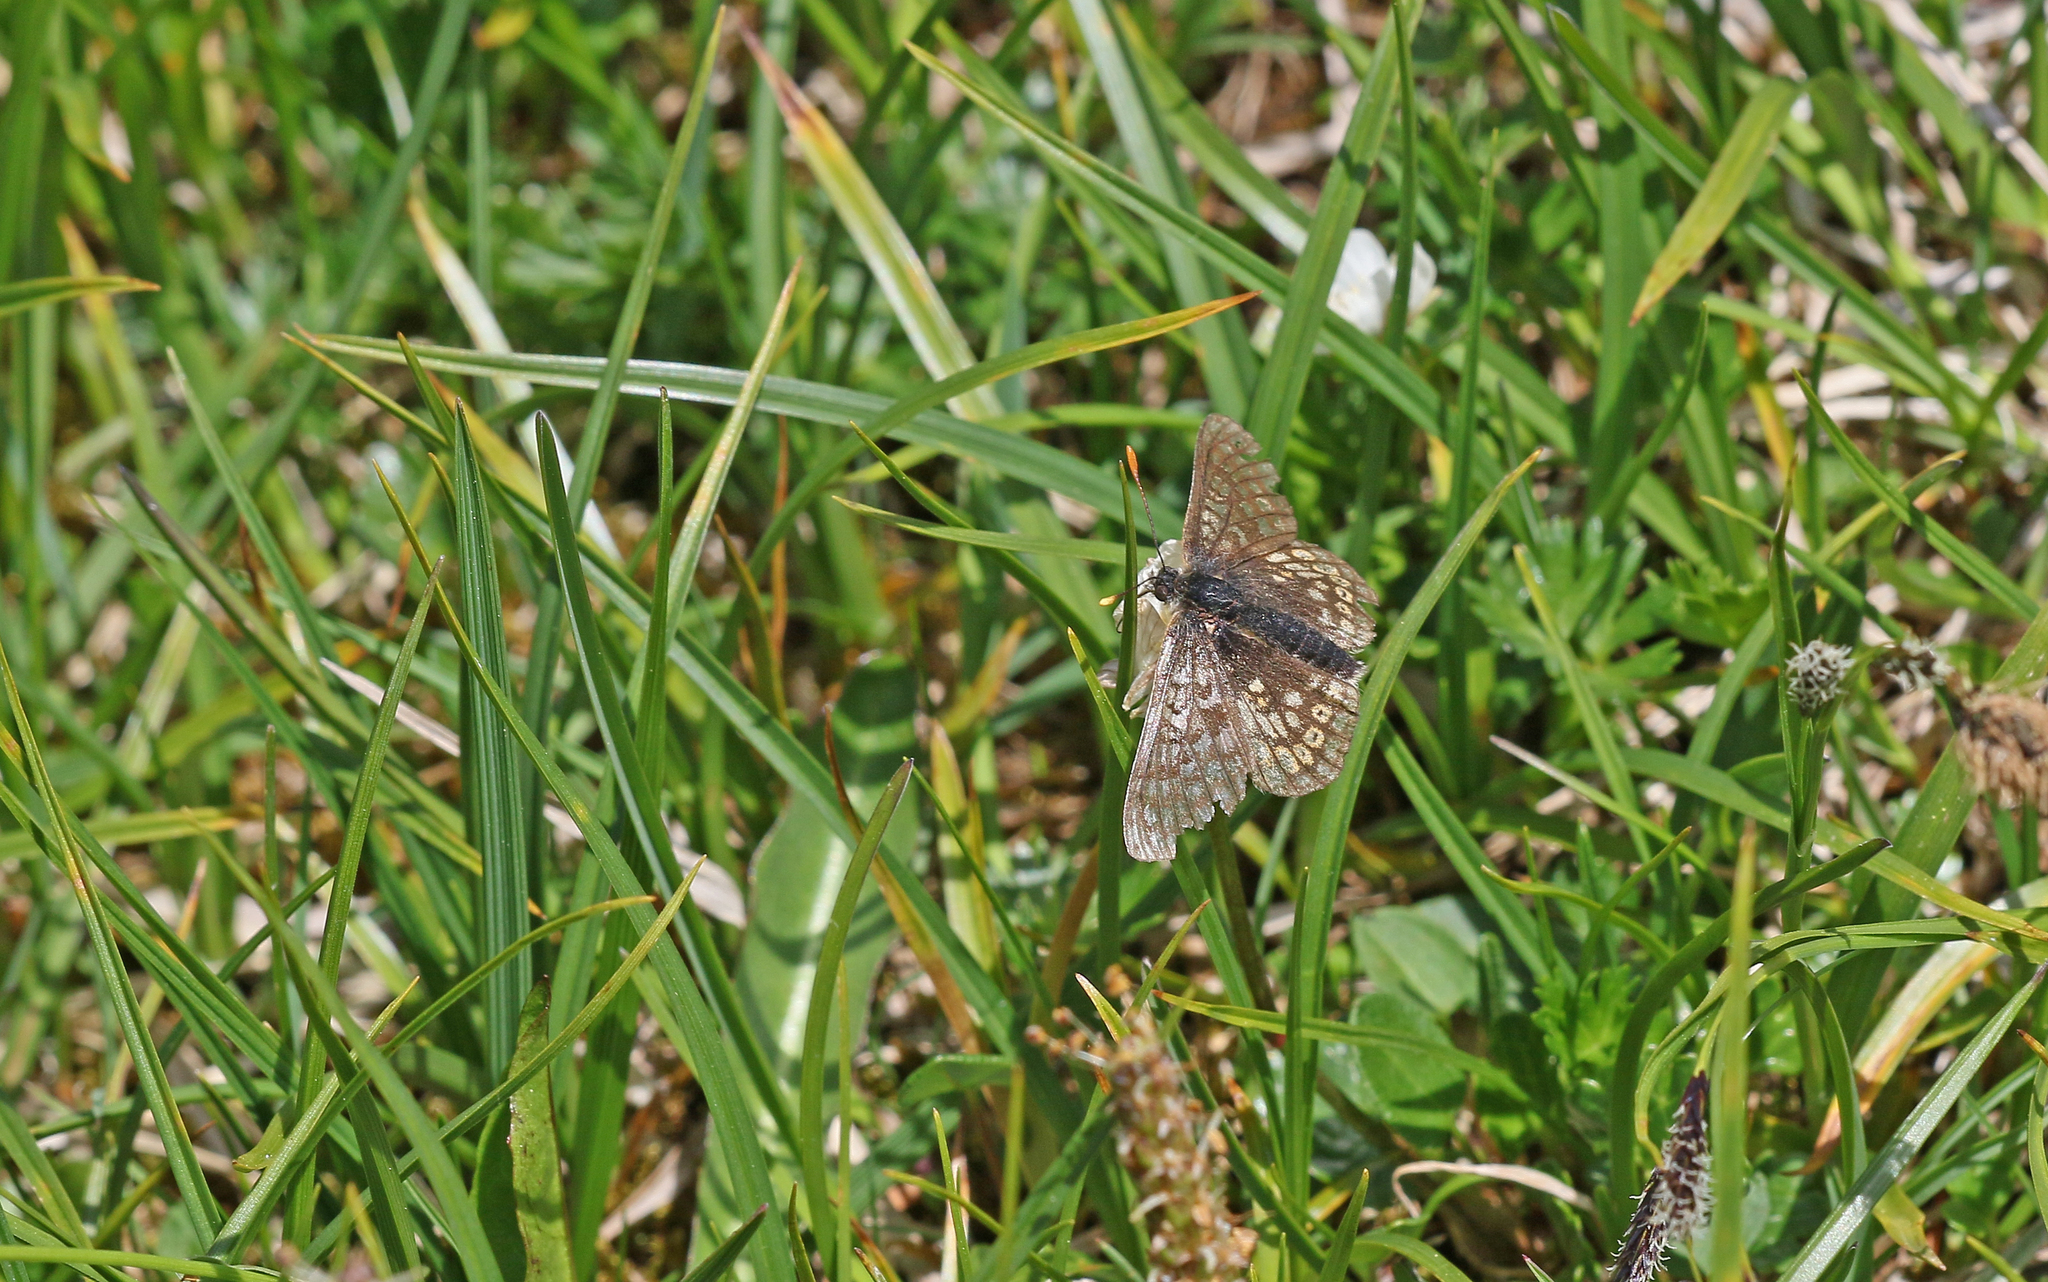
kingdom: Animalia
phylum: Arthropoda
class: Insecta
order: Lepidoptera
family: Nymphalidae
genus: Euphydryas
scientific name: Euphydryas aurinia
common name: Marsh fritillary
